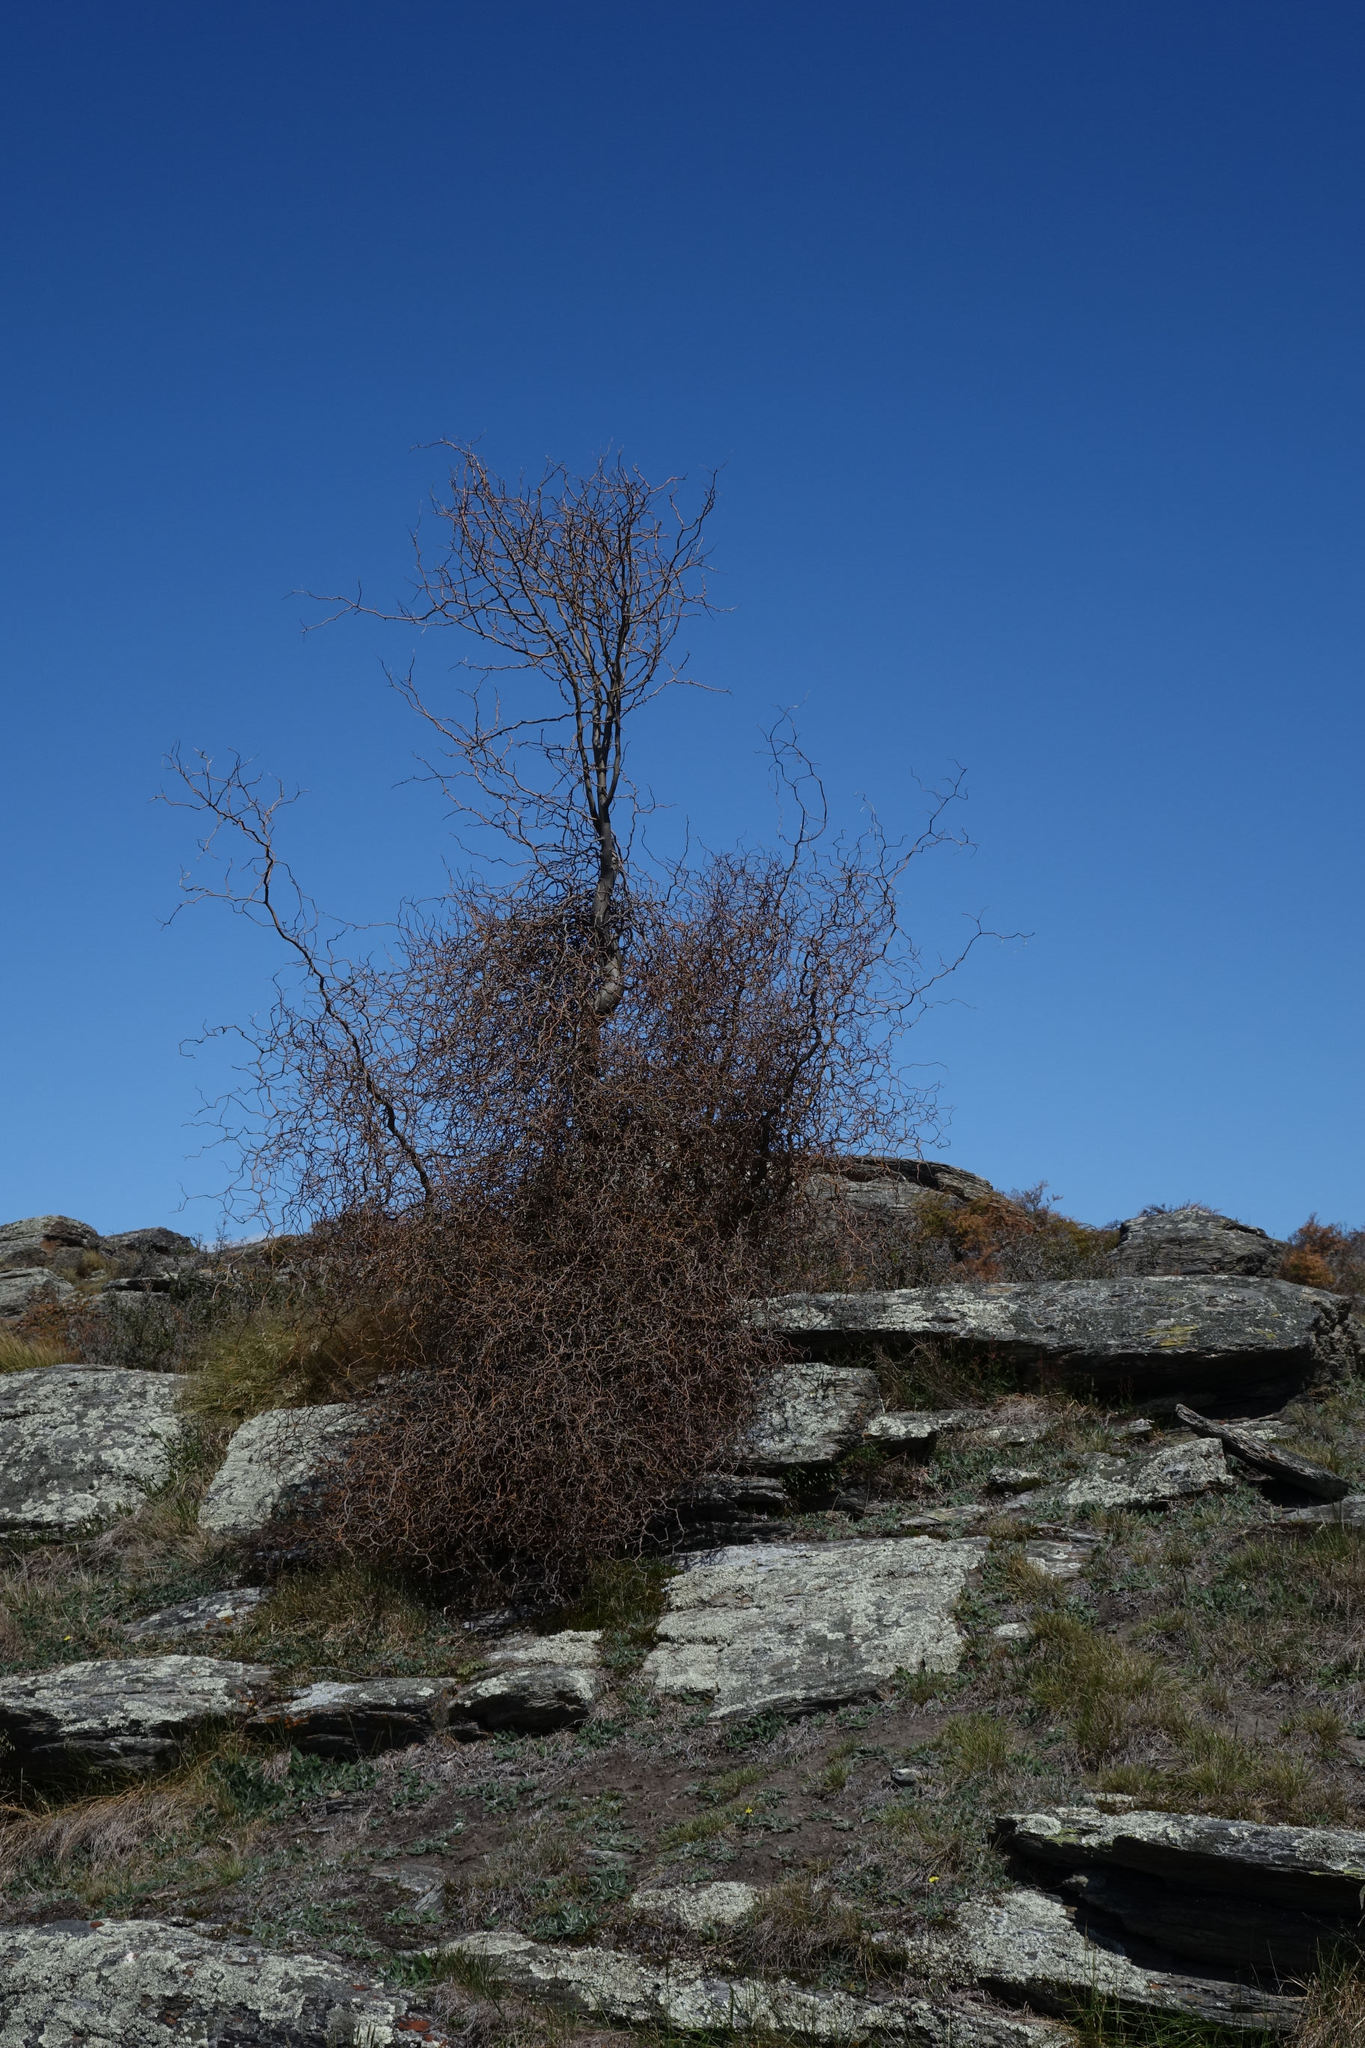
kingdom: Plantae
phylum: Tracheophyta
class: Magnoliopsida
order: Fabales
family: Fabaceae
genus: Sophora
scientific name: Sophora microphylla
